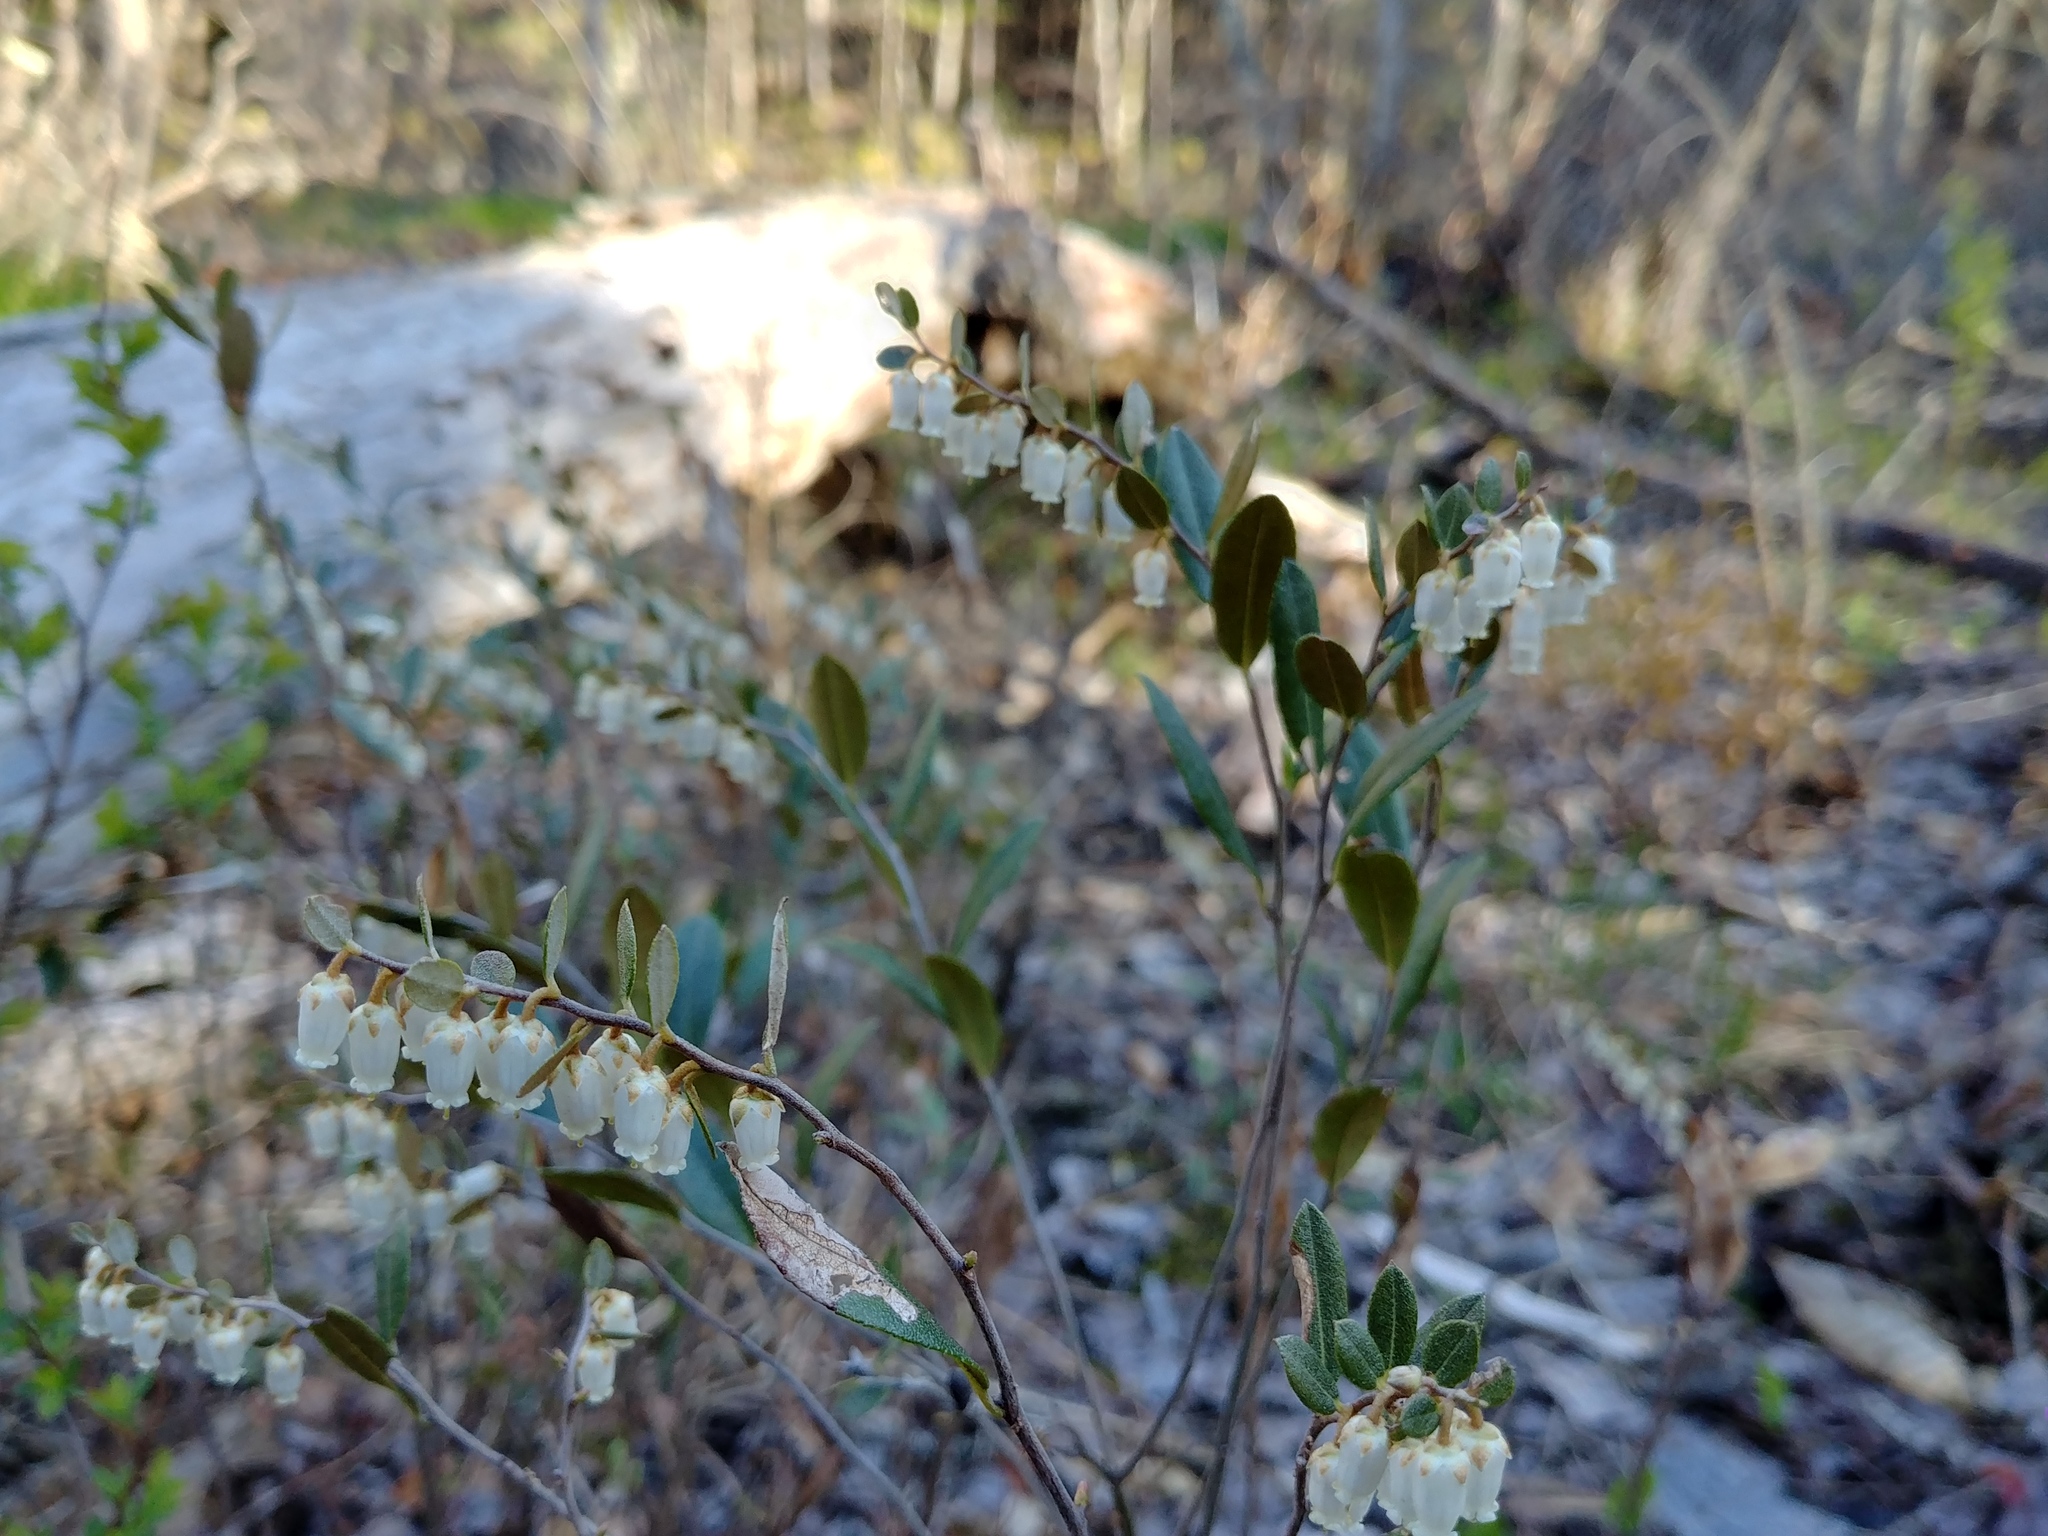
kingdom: Plantae
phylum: Tracheophyta
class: Magnoliopsida
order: Ericales
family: Ericaceae
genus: Chamaedaphne
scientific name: Chamaedaphne calyculata
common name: Leatherleaf
